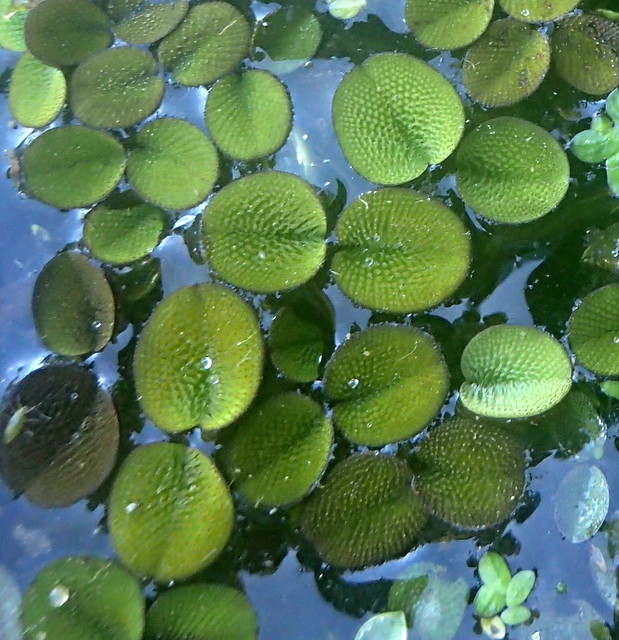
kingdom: Plantae
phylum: Tracheophyta
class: Polypodiopsida
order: Salviniales
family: Salviniaceae
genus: Salvinia
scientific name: Salvinia minima
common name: Water spangles
